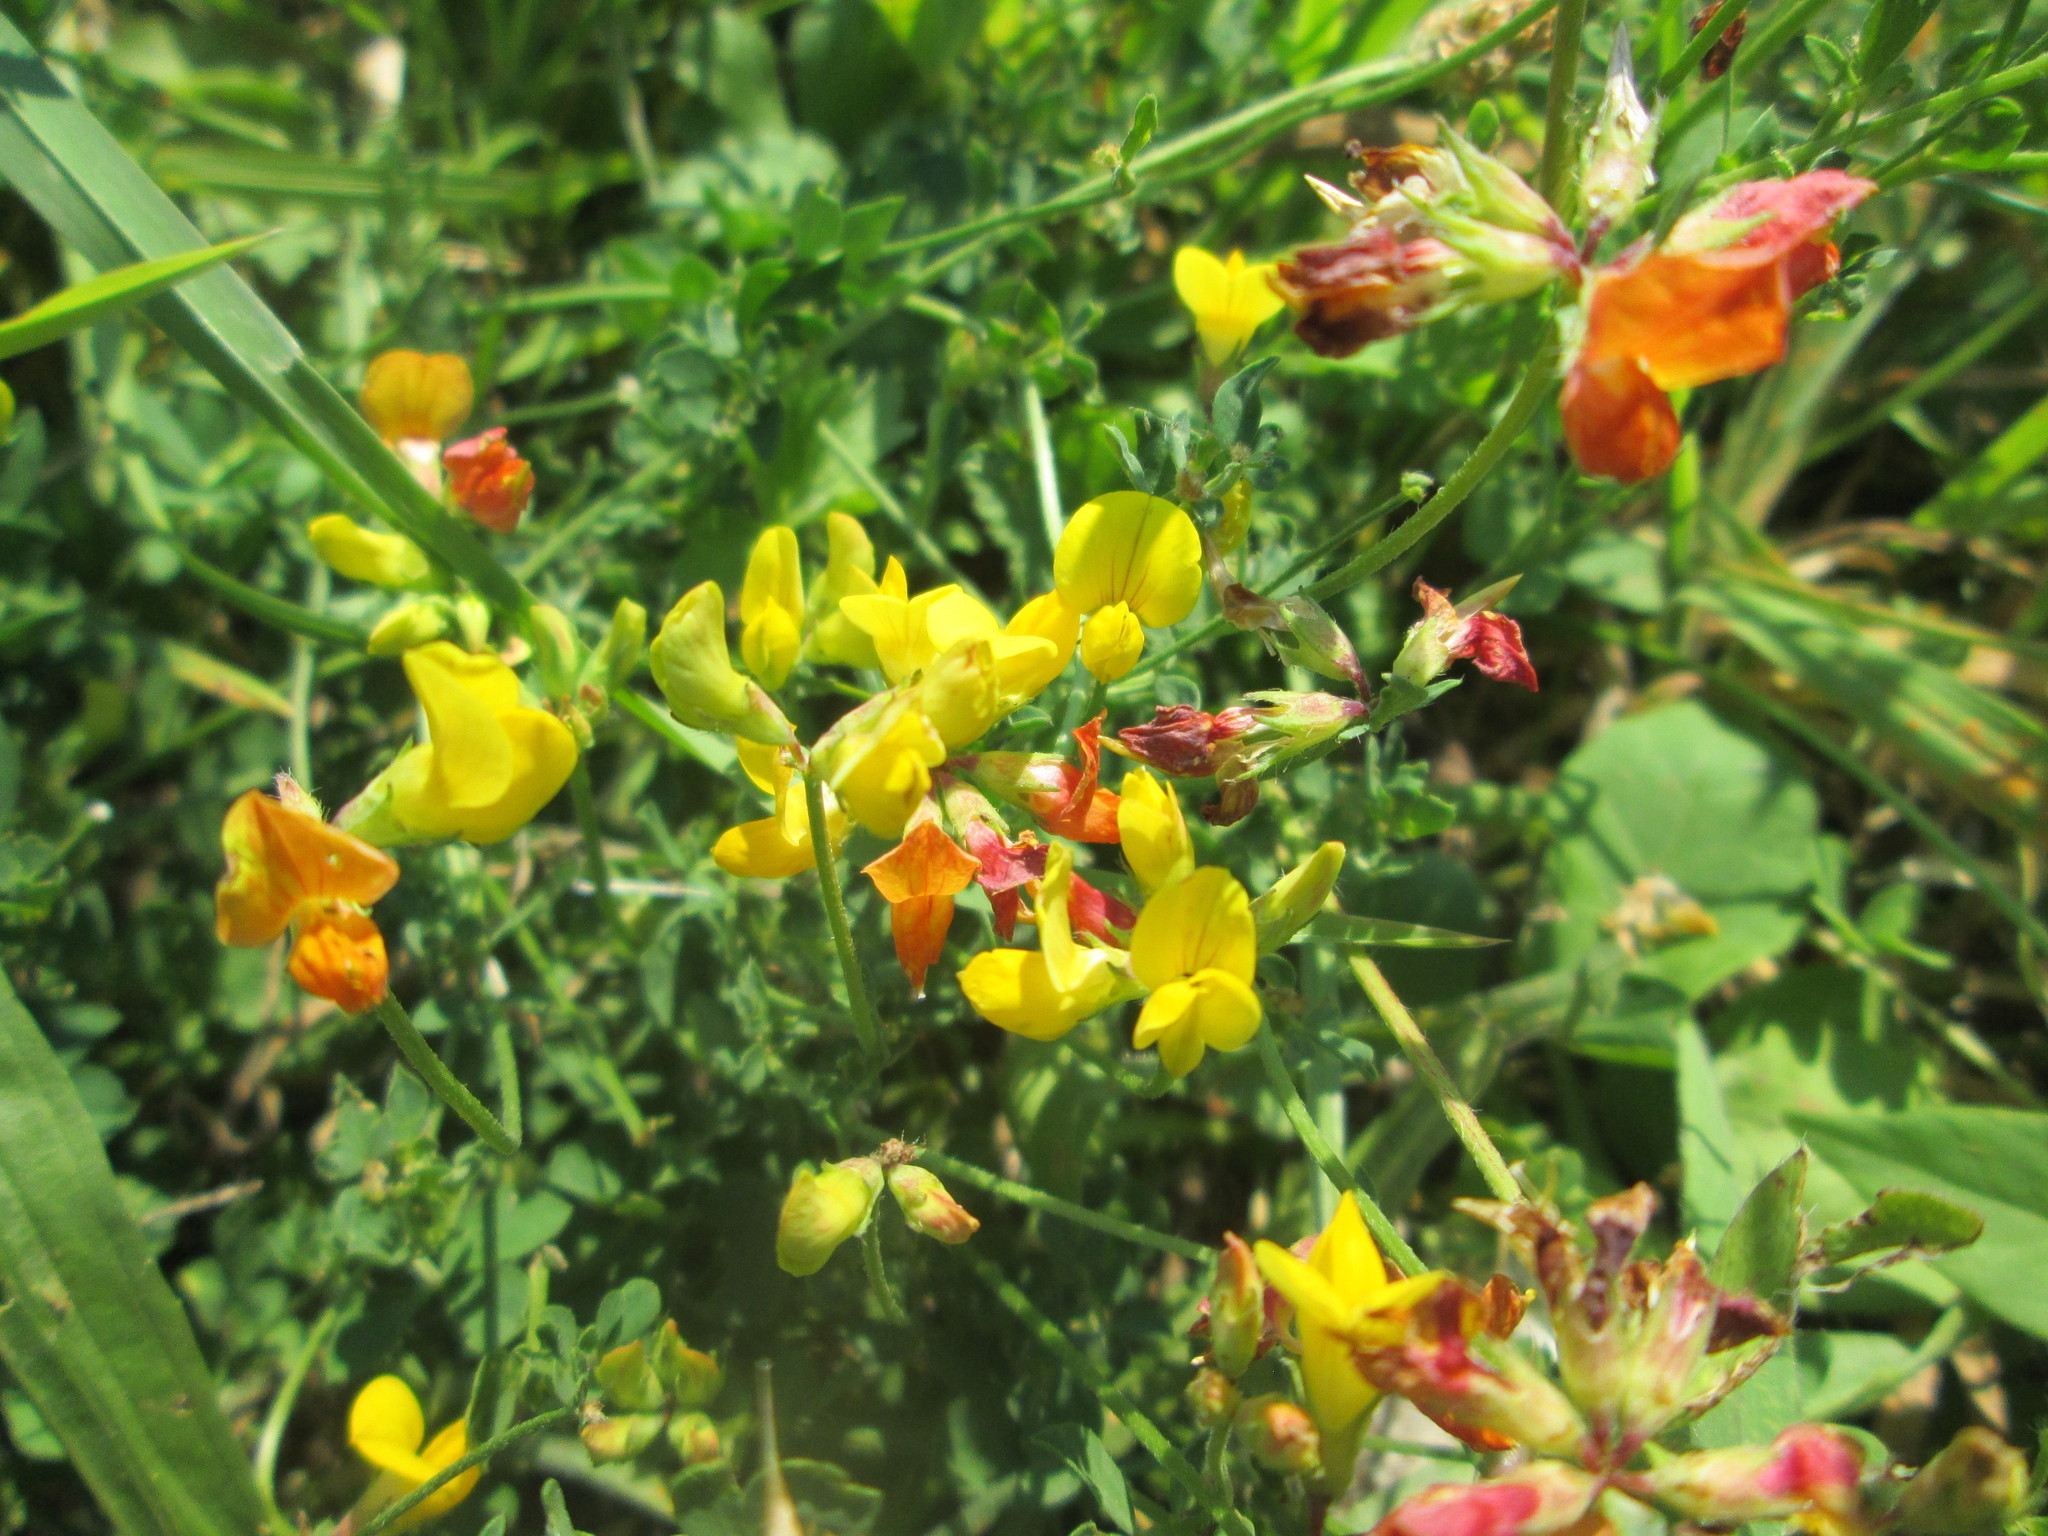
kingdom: Plantae
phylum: Tracheophyta
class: Magnoliopsida
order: Fabales
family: Fabaceae
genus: Lotus
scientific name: Lotus corniculatus
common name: Common bird's-foot-trefoil
